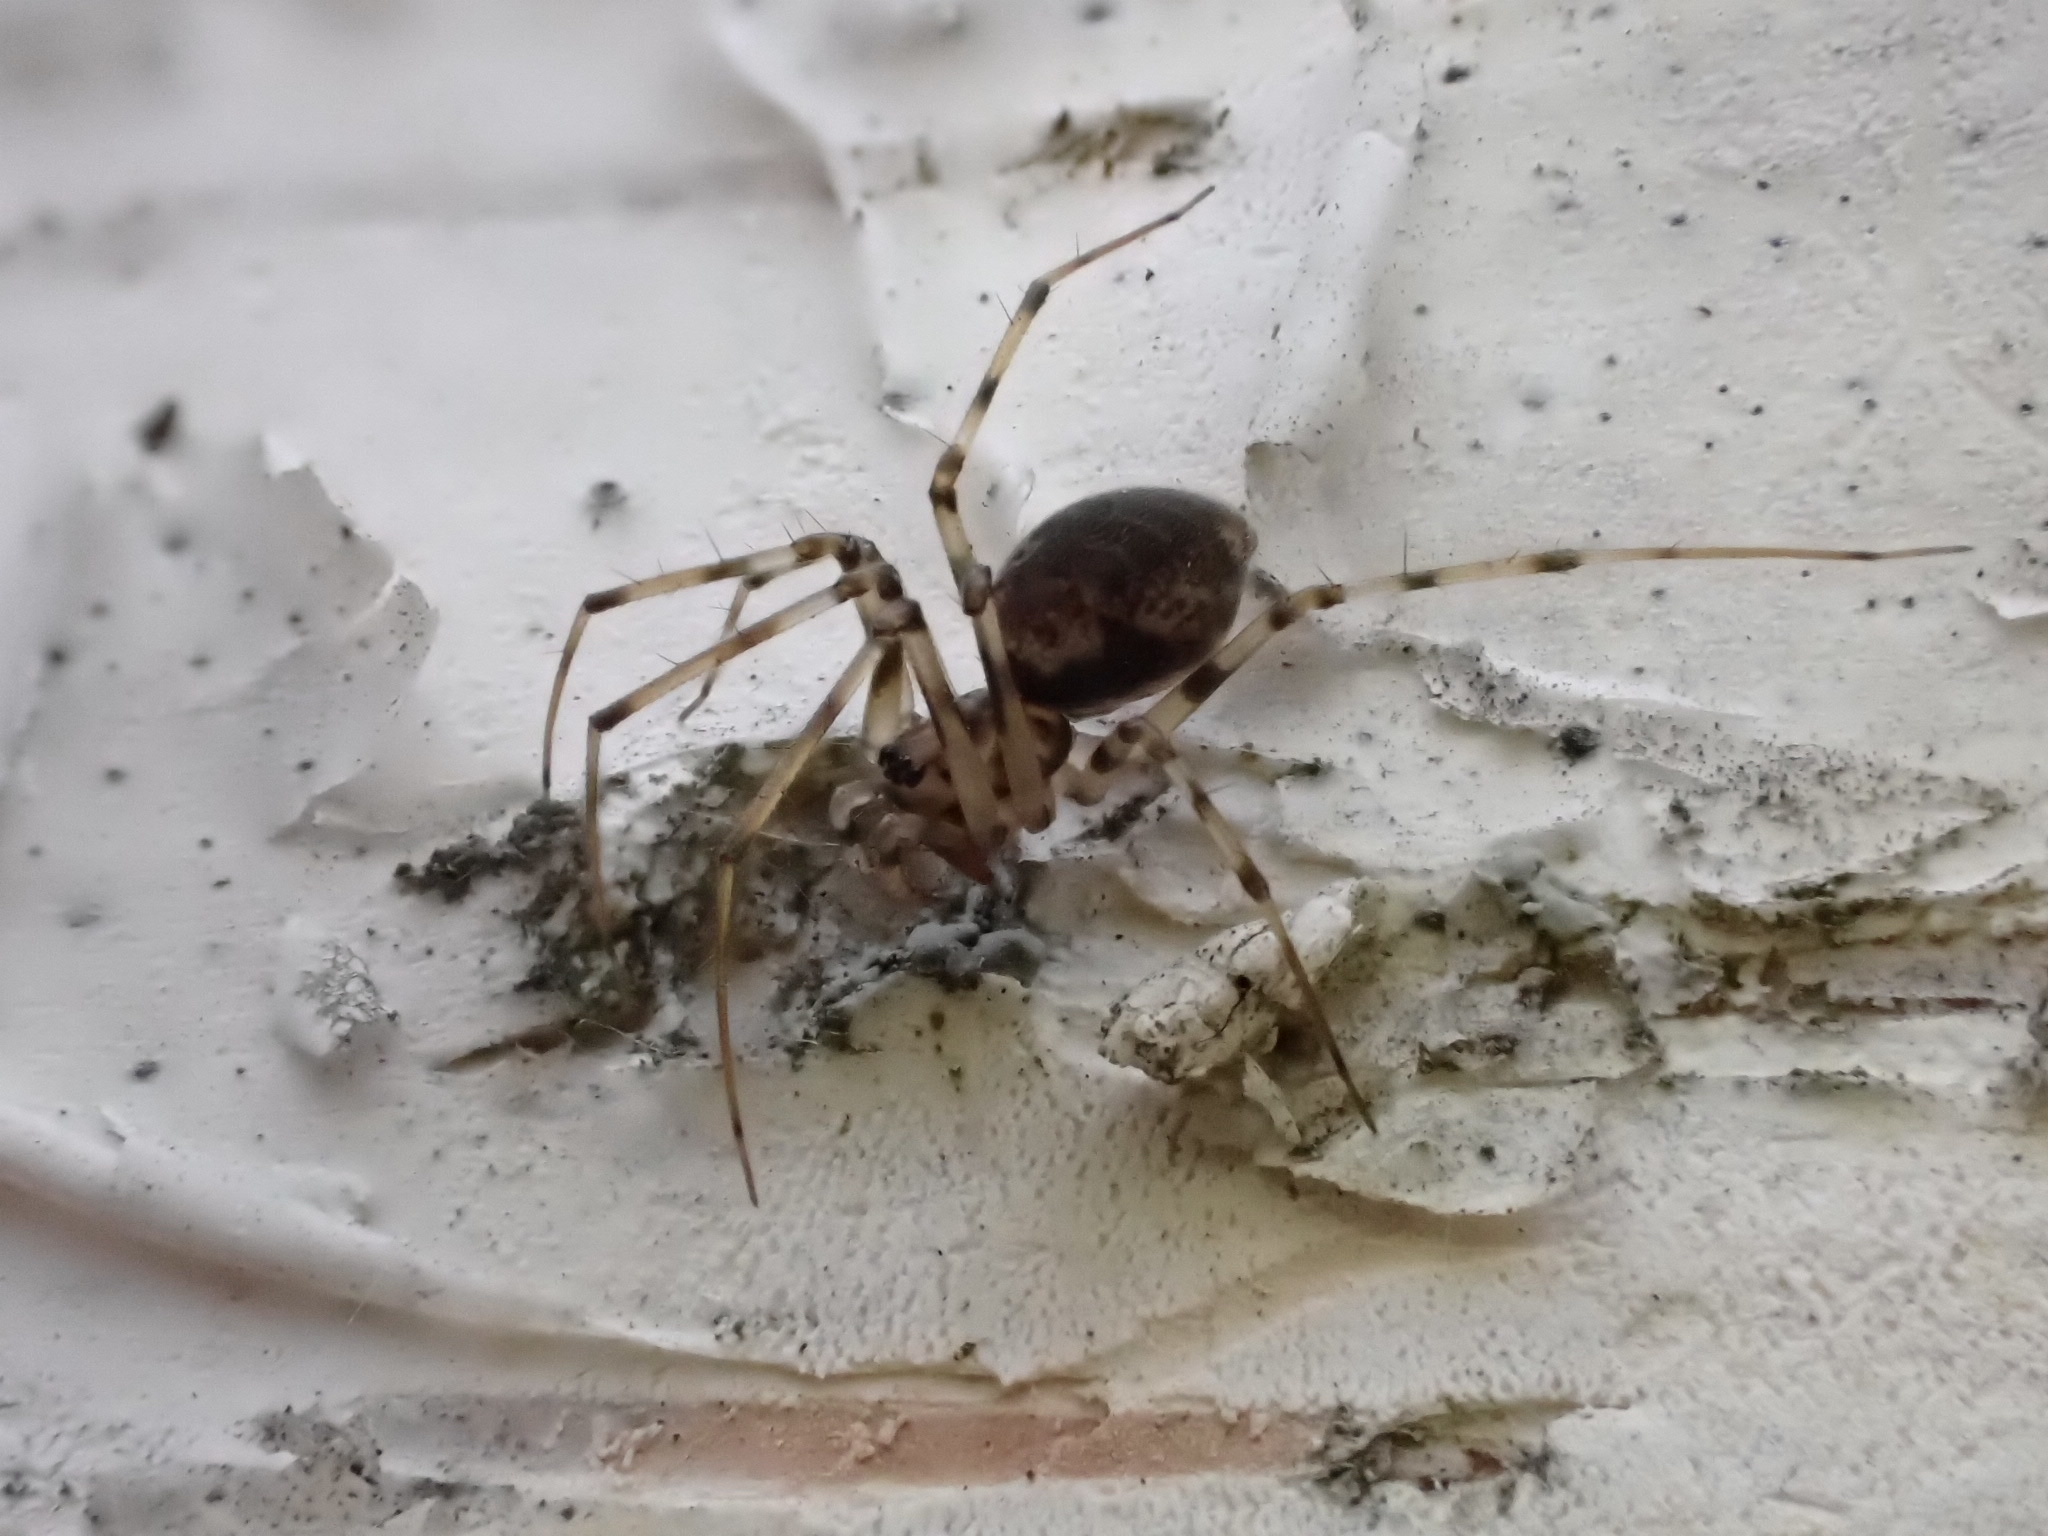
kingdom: Animalia
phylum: Arthropoda
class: Arachnida
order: Araneae
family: Linyphiidae
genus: Drapetisca
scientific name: Drapetisca socialis
